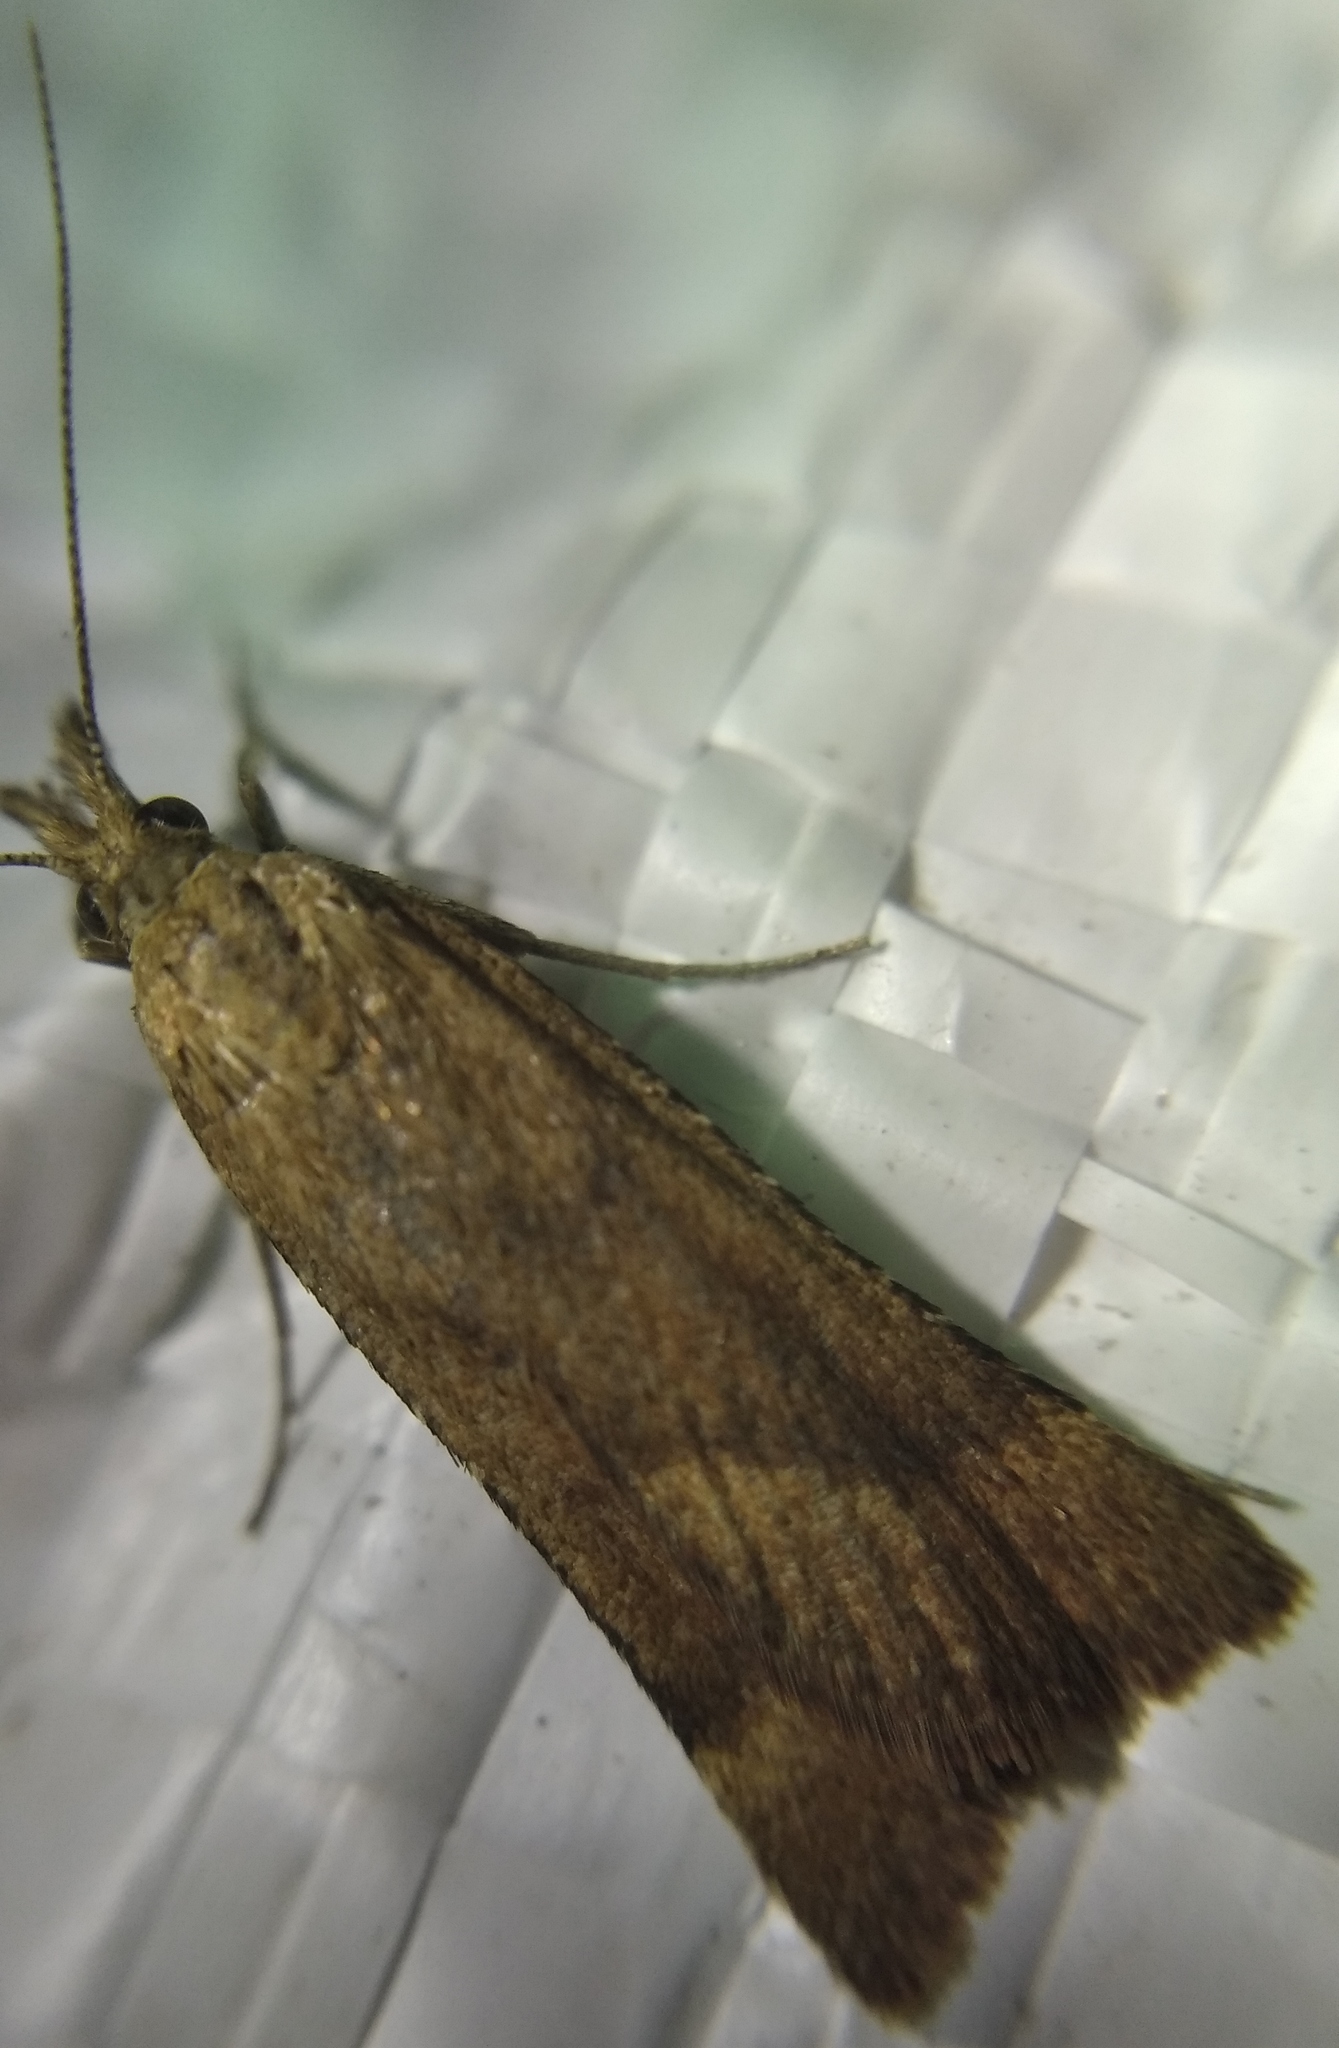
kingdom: Animalia
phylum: Arthropoda
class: Insecta
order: Lepidoptera
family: Pyralidae
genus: Synaphe
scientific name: Synaphe punctalis
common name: Long-legged tabby
